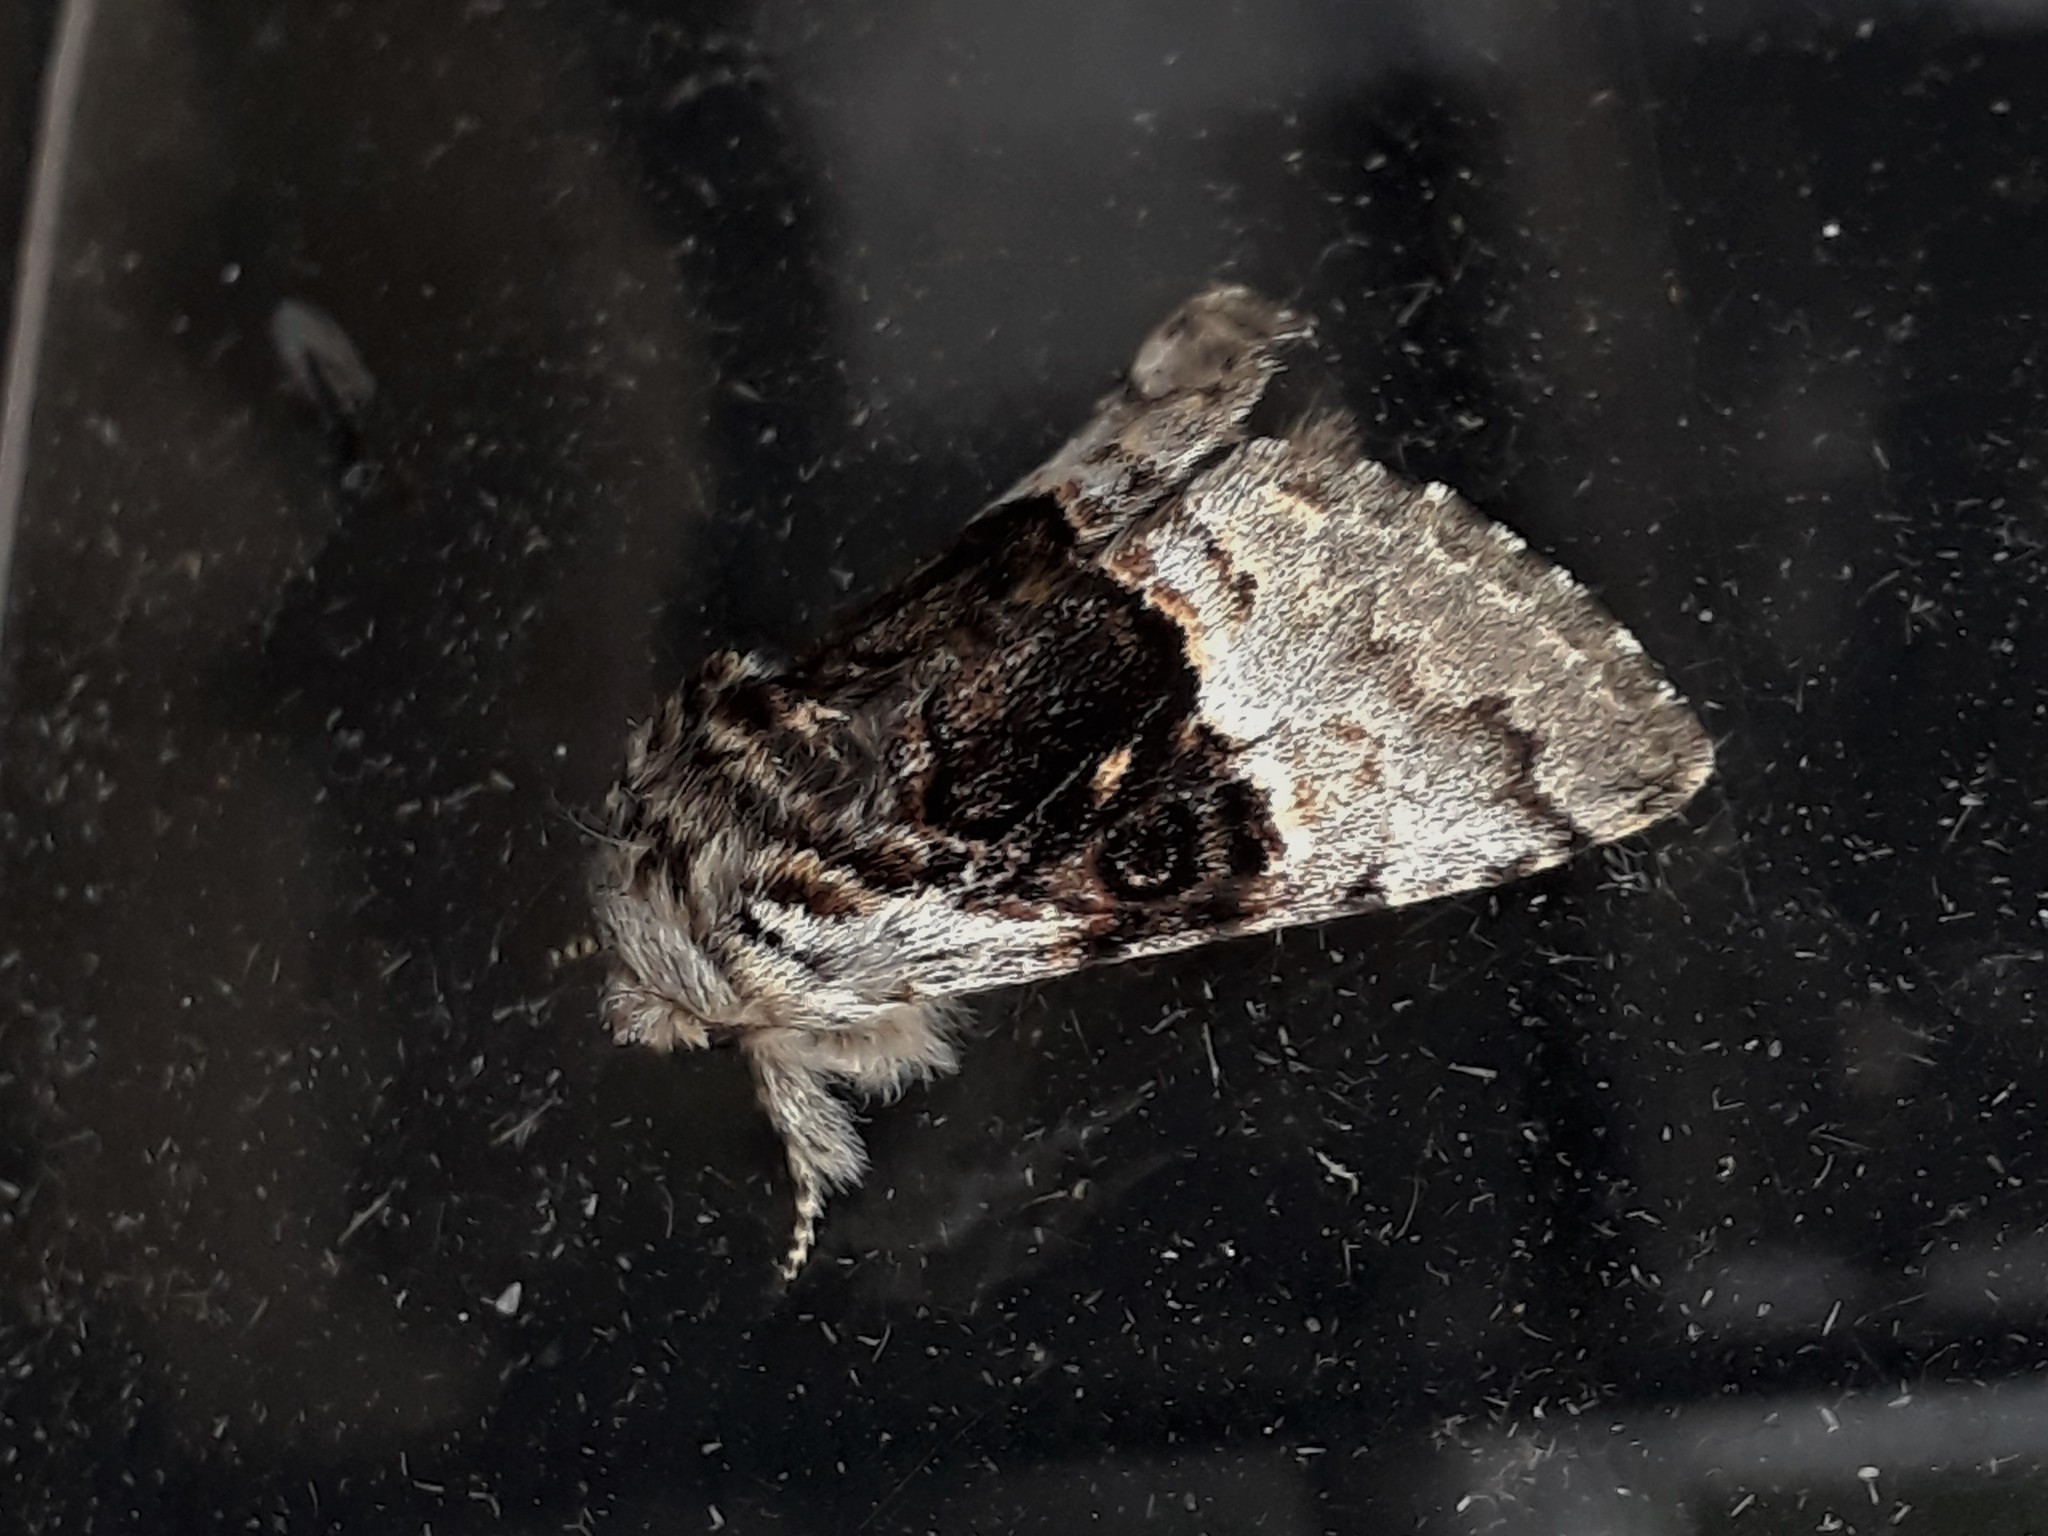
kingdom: Animalia
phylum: Arthropoda
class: Insecta
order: Lepidoptera
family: Noctuidae
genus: Colocasia
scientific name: Colocasia coryli
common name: Nut-tree tussock
